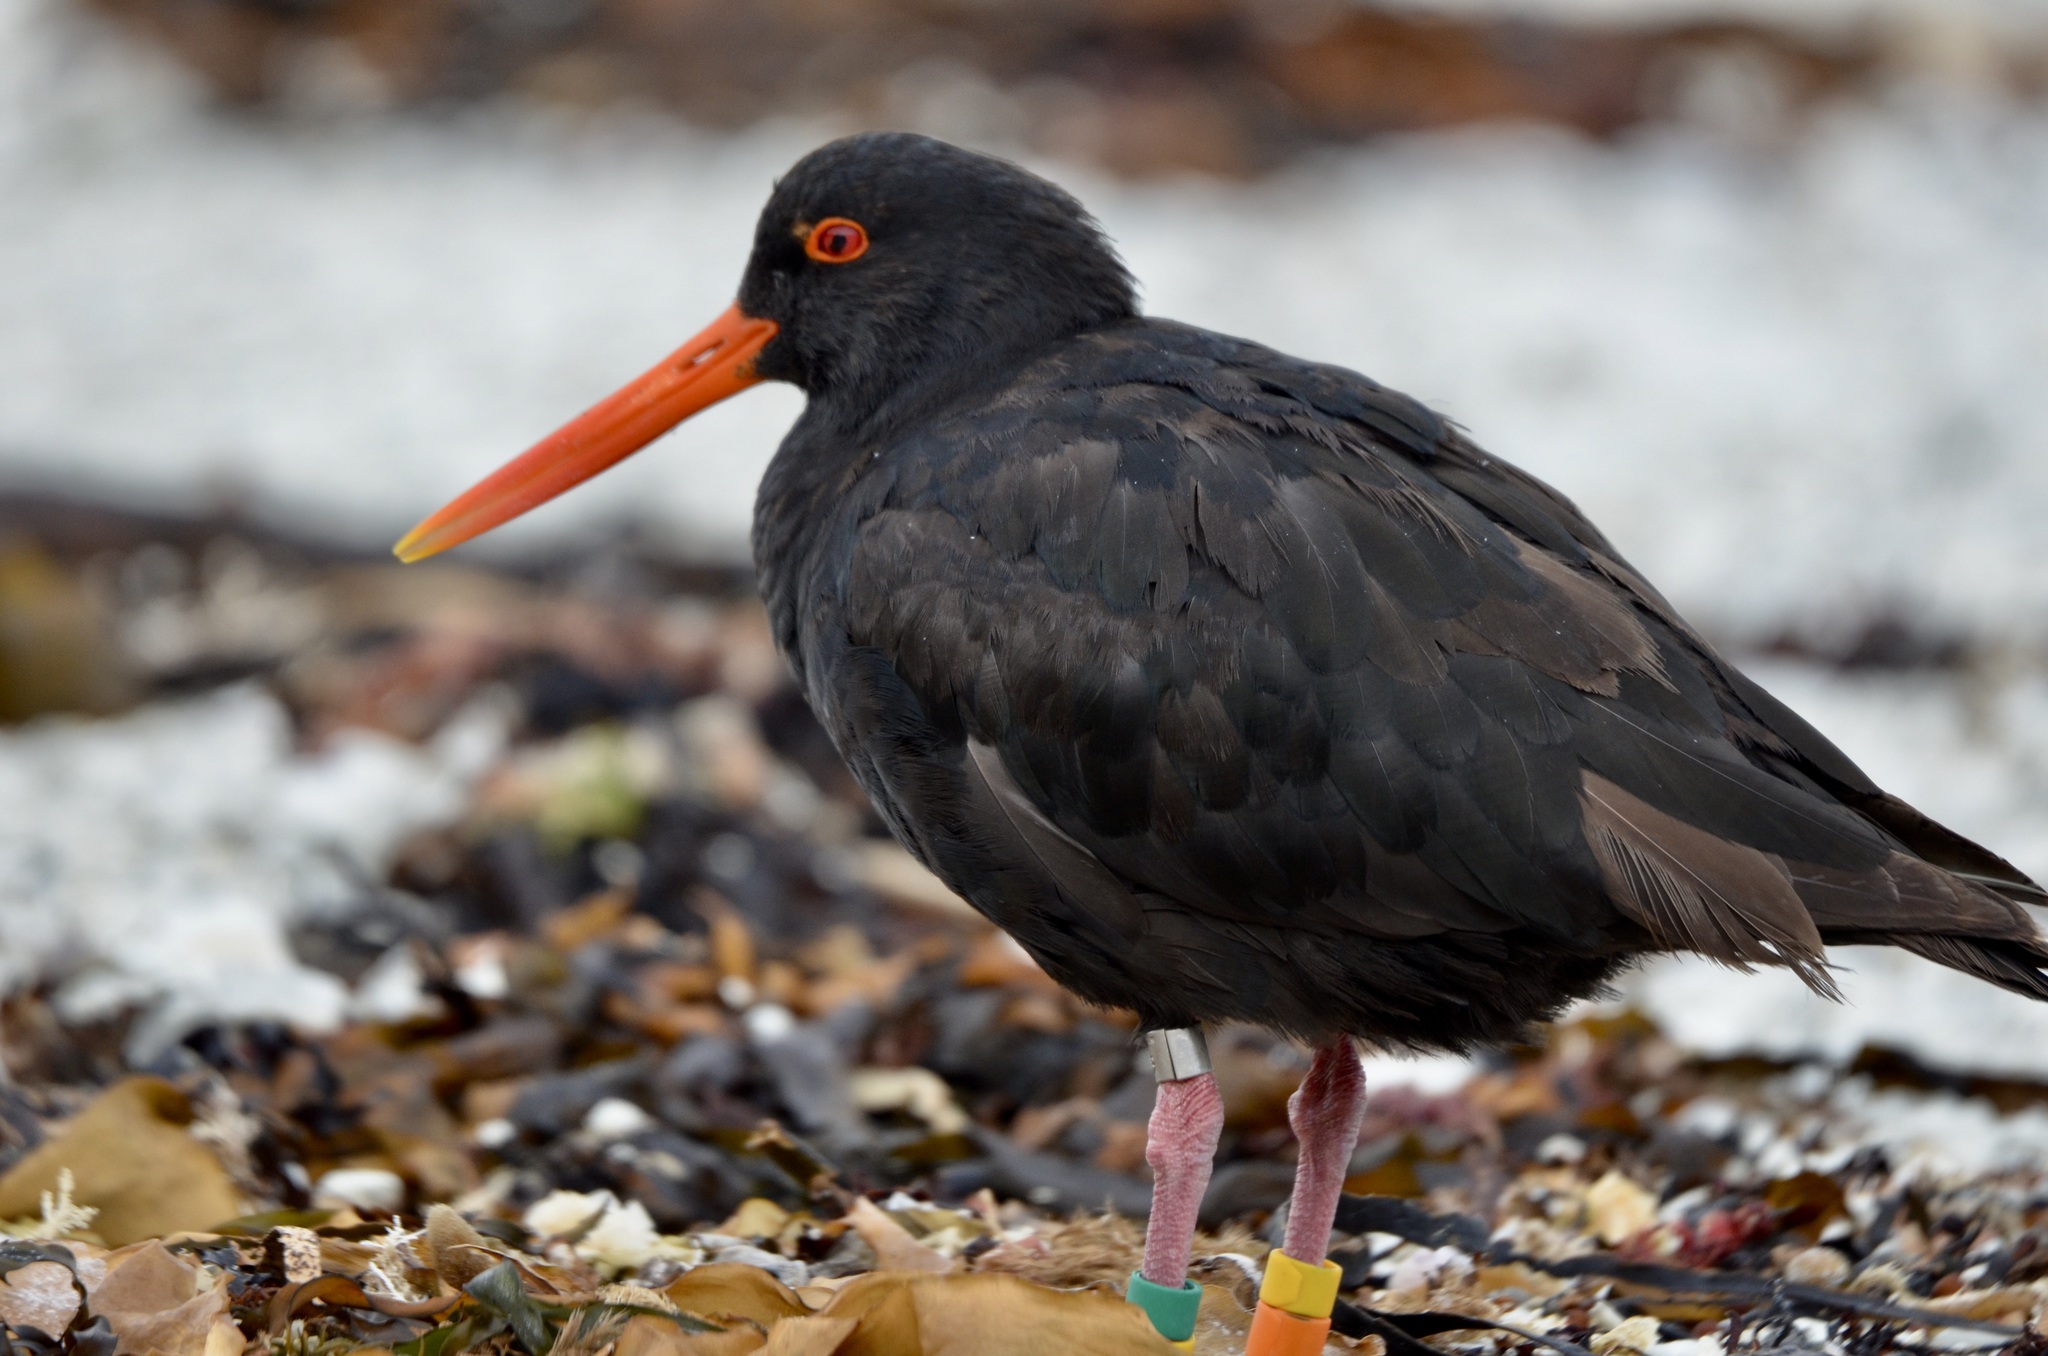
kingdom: Animalia
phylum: Chordata
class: Aves
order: Charadriiformes
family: Haematopodidae
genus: Haematopus
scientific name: Haematopus unicolor
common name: Variable oystercatcher
